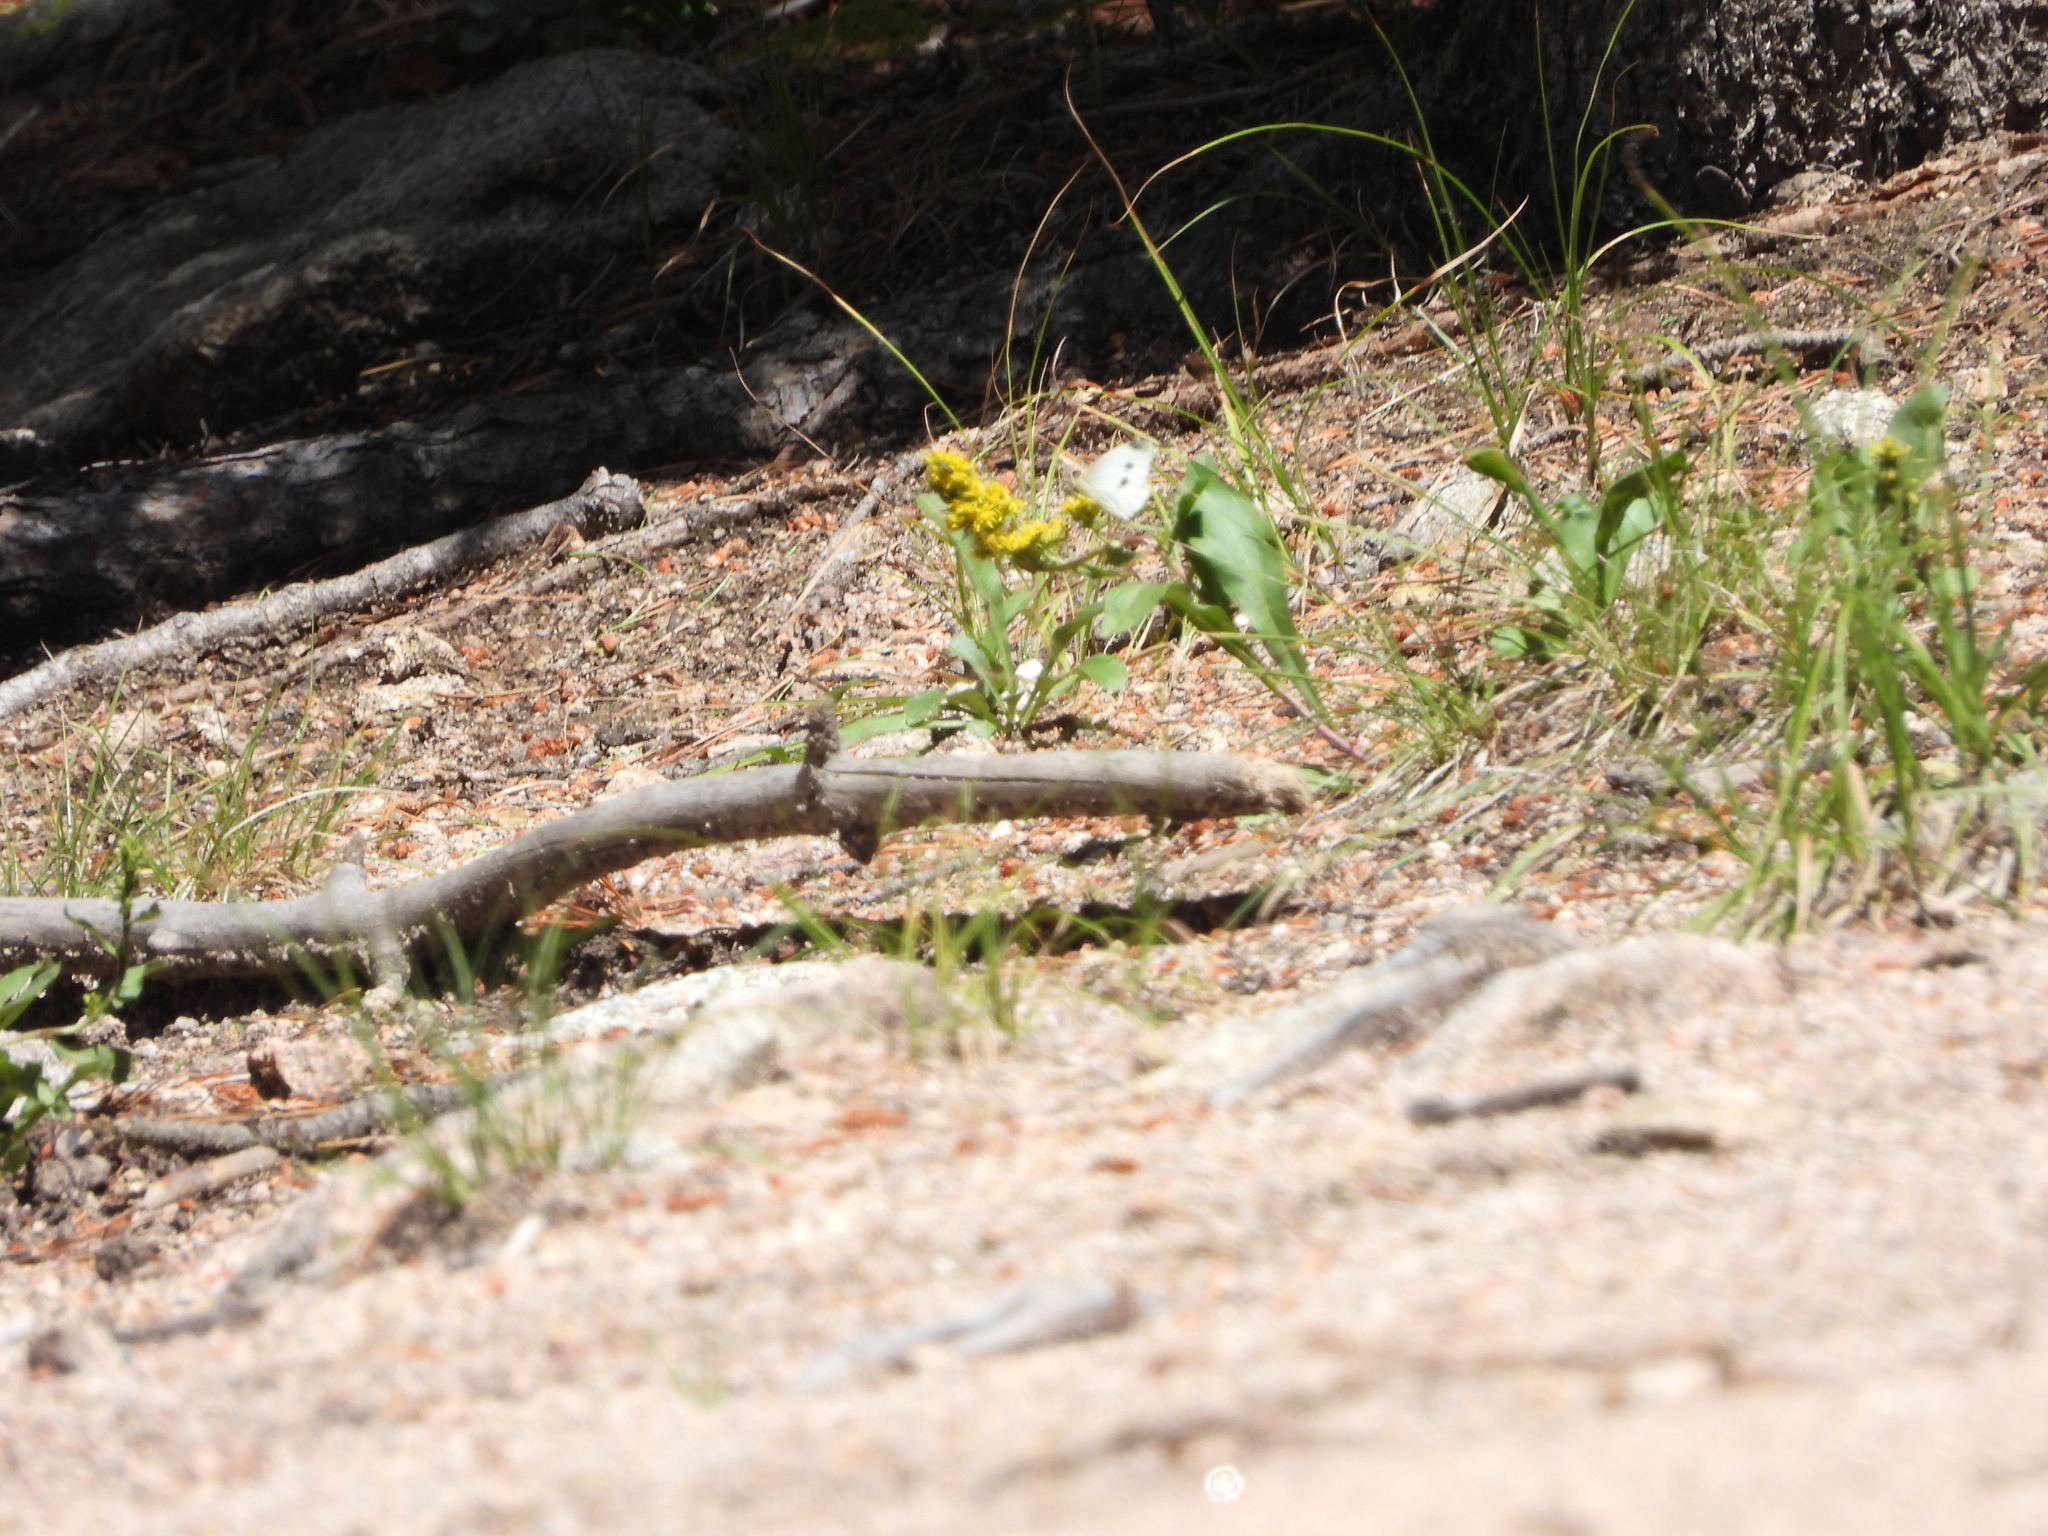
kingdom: Animalia
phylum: Arthropoda
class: Insecta
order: Lepidoptera
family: Pieridae
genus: Pieris
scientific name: Pieris rapae
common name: Small white
